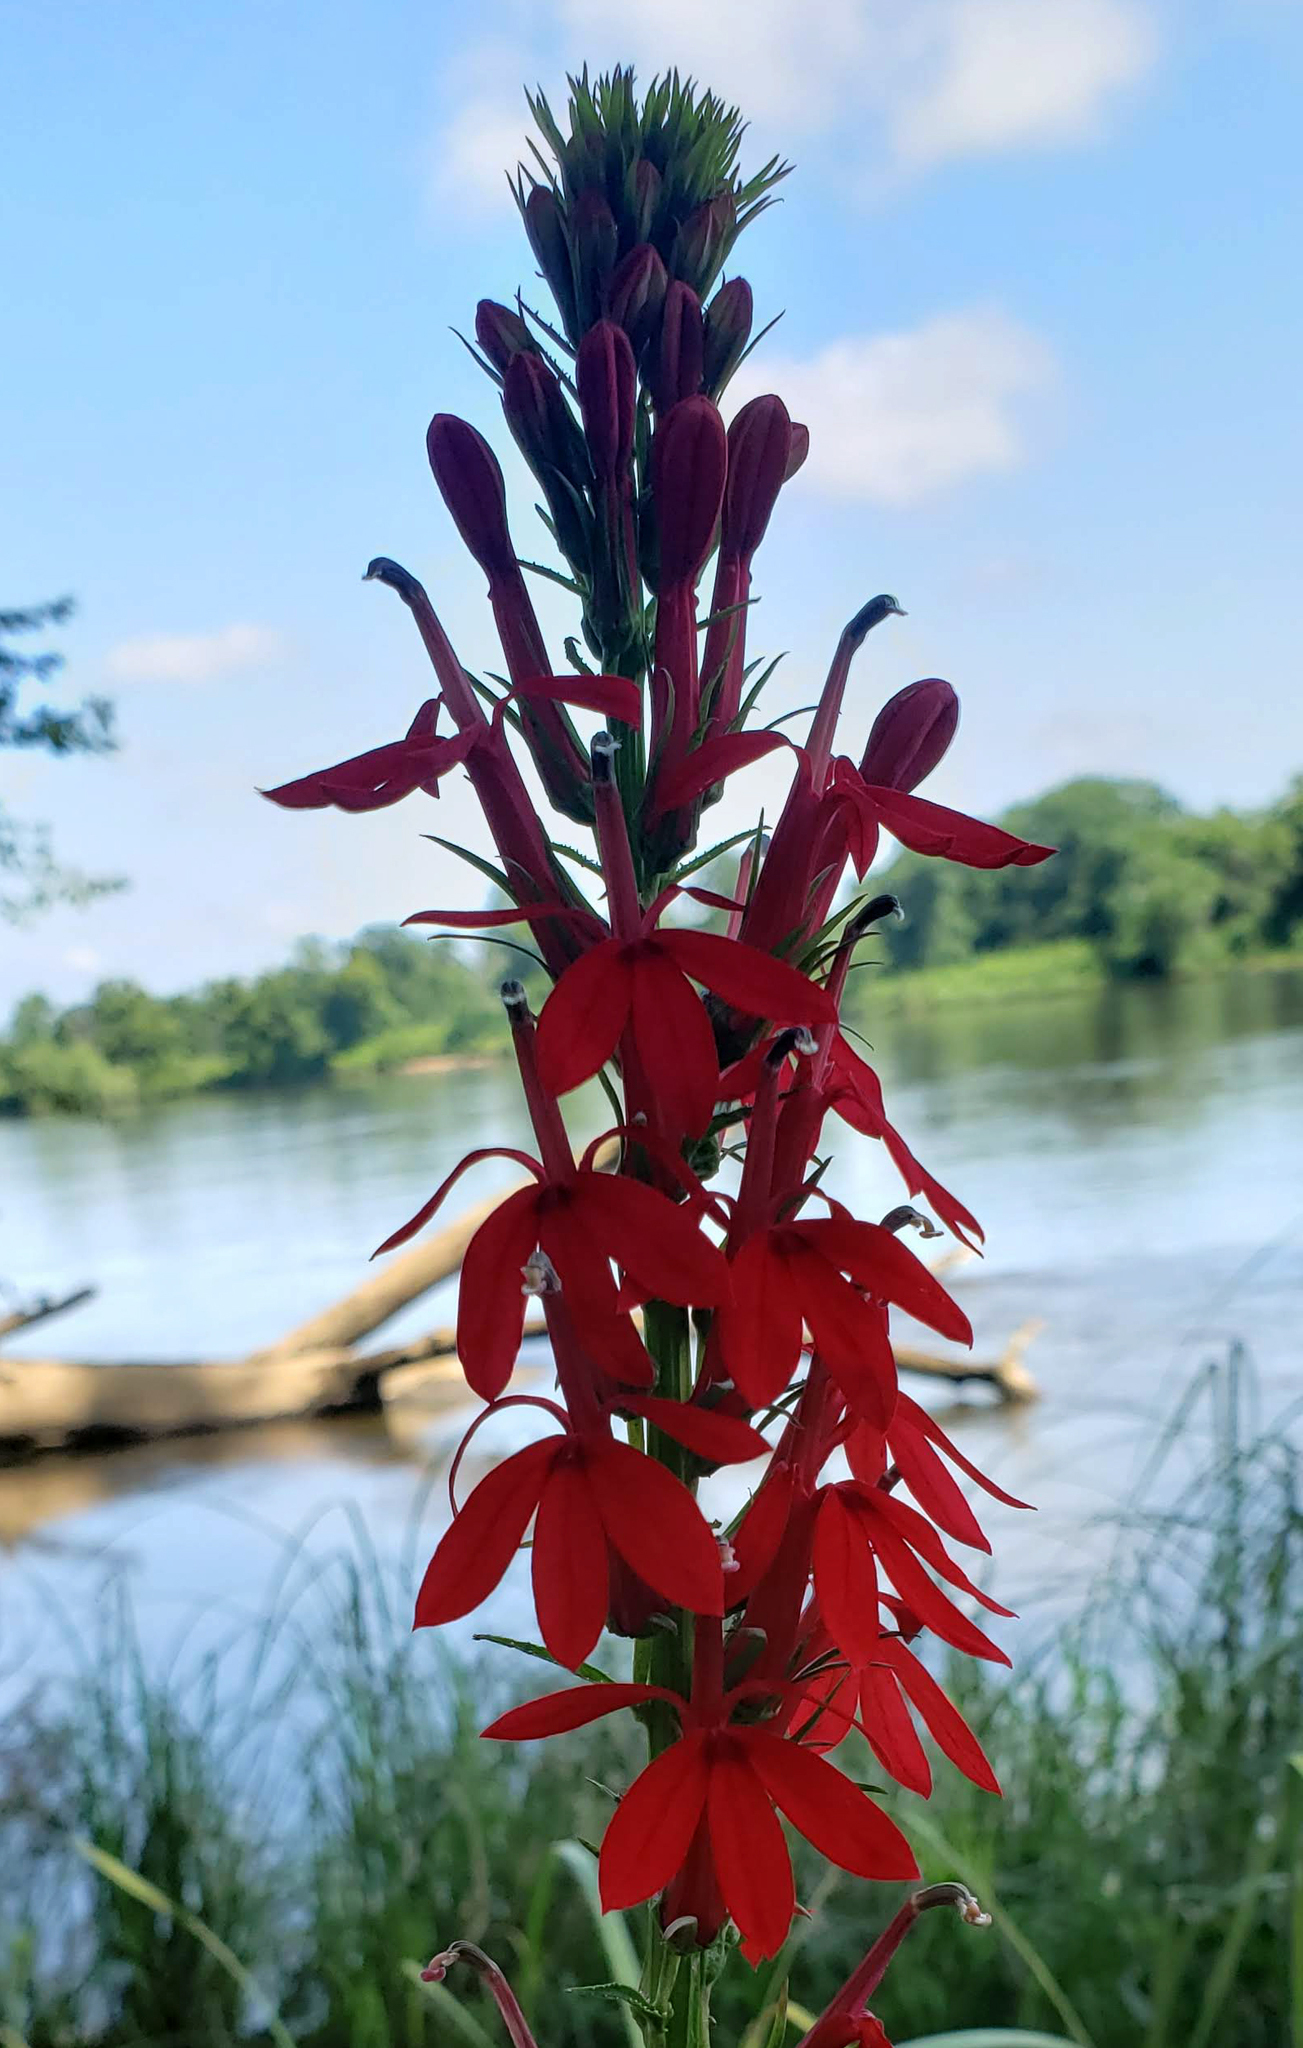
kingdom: Plantae
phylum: Tracheophyta
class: Magnoliopsida
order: Asterales
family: Campanulaceae
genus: Lobelia
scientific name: Lobelia cardinalis
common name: Cardinal flower
